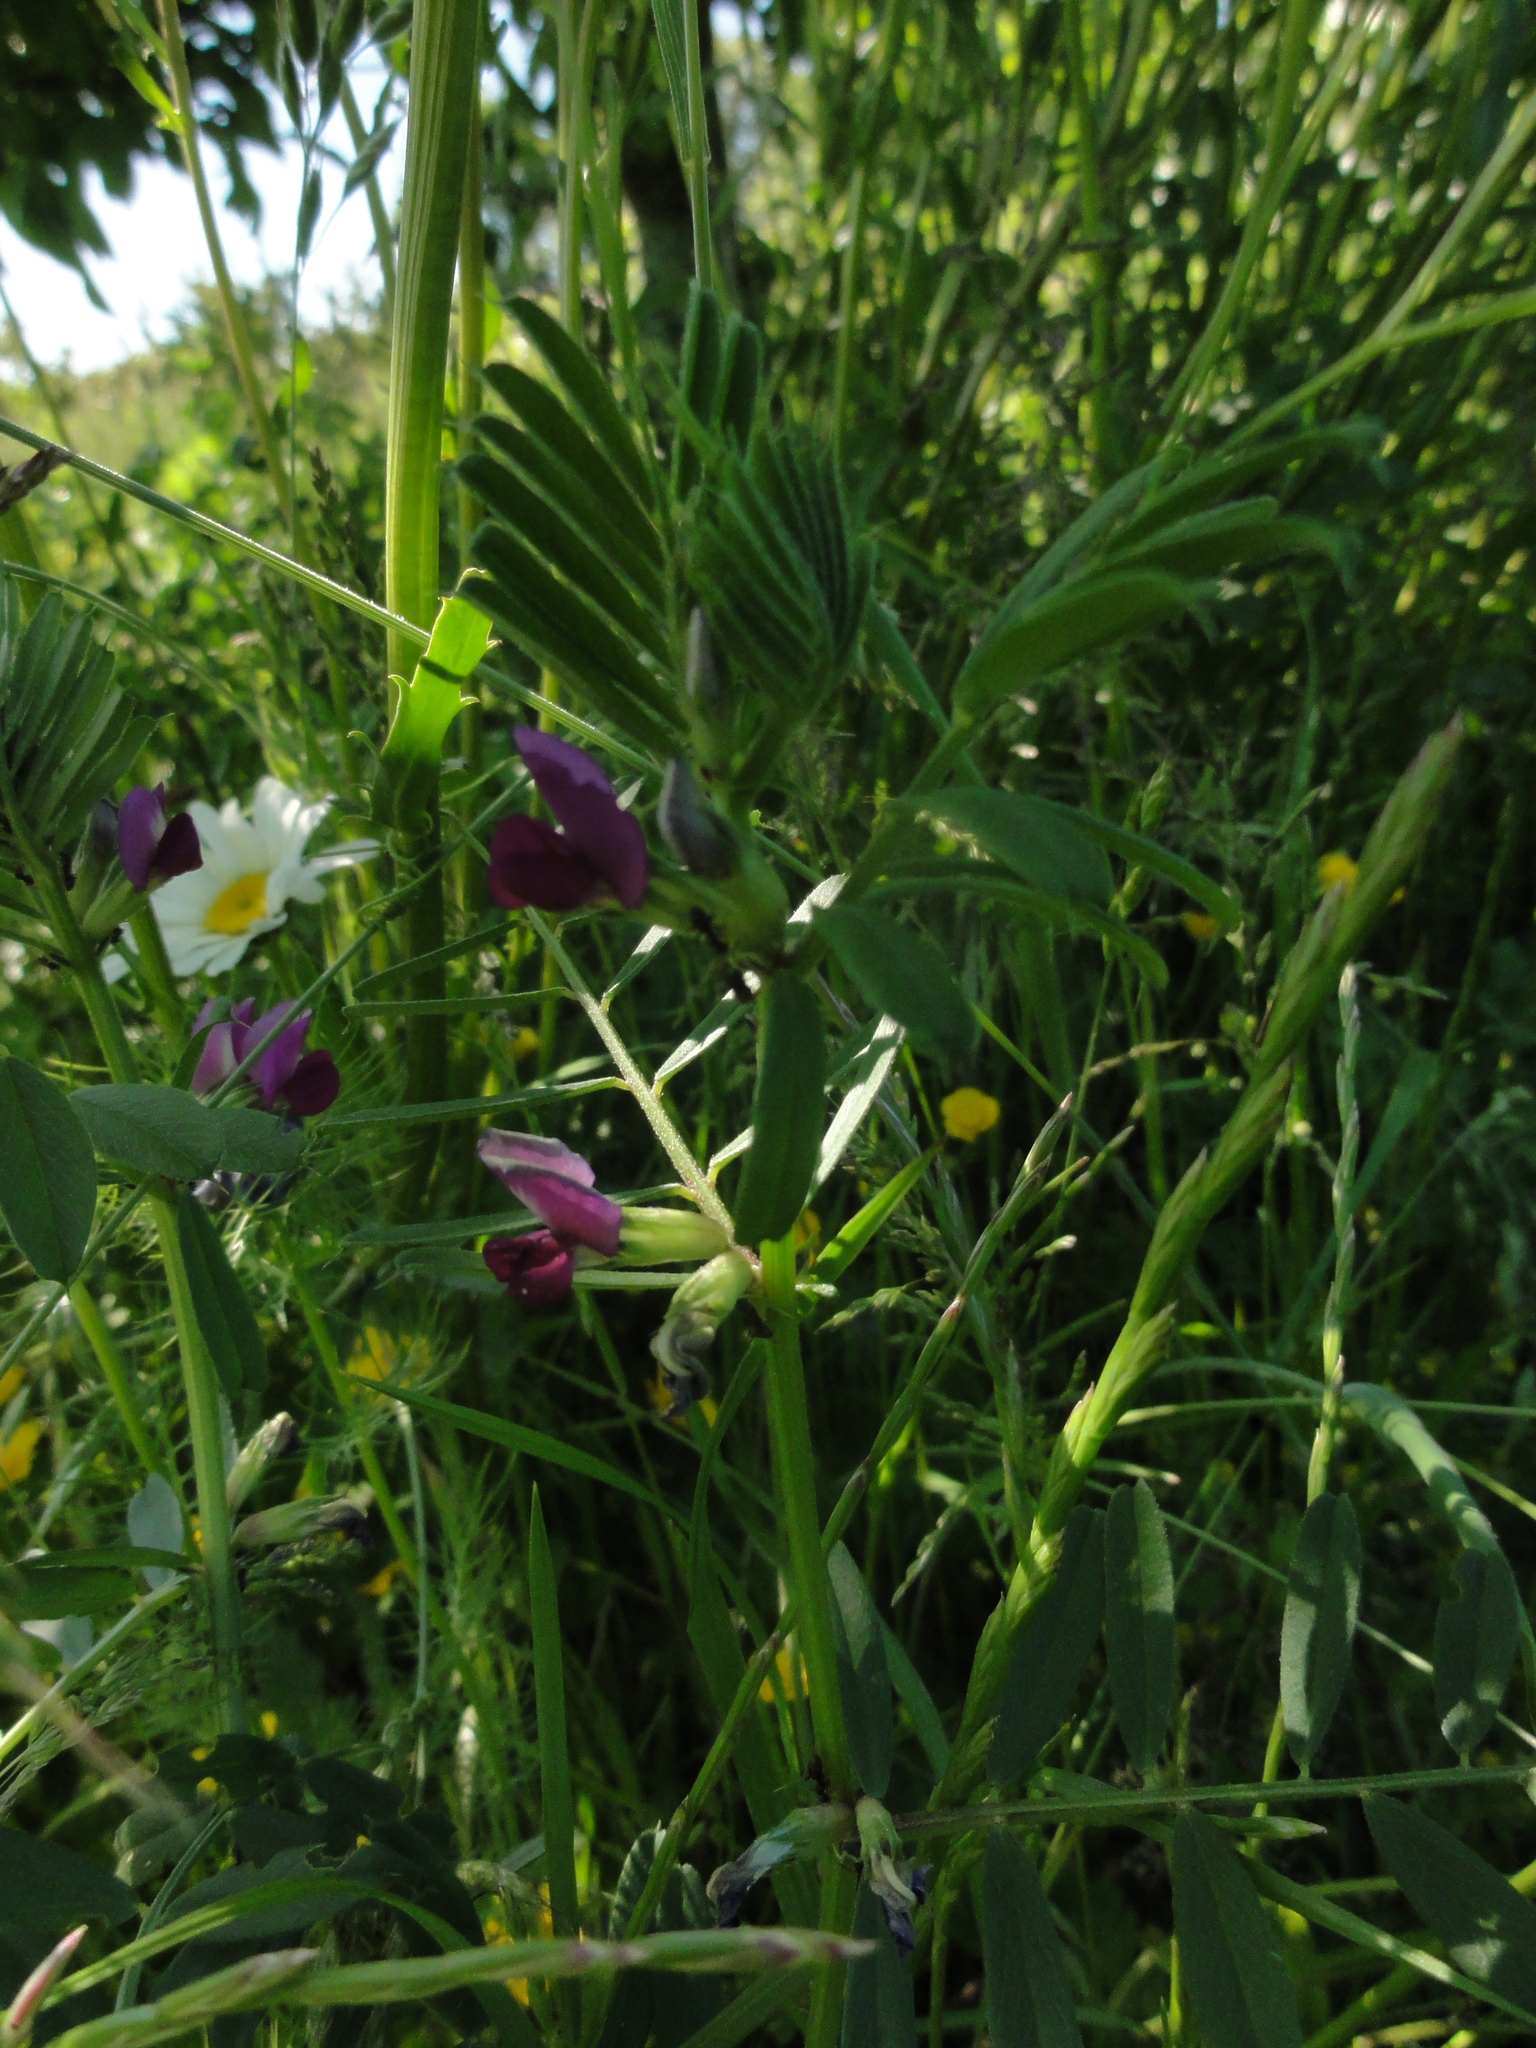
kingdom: Plantae
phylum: Tracheophyta
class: Magnoliopsida
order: Fabales
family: Fabaceae
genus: Vicia
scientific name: Vicia sativa
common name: Garden vetch
